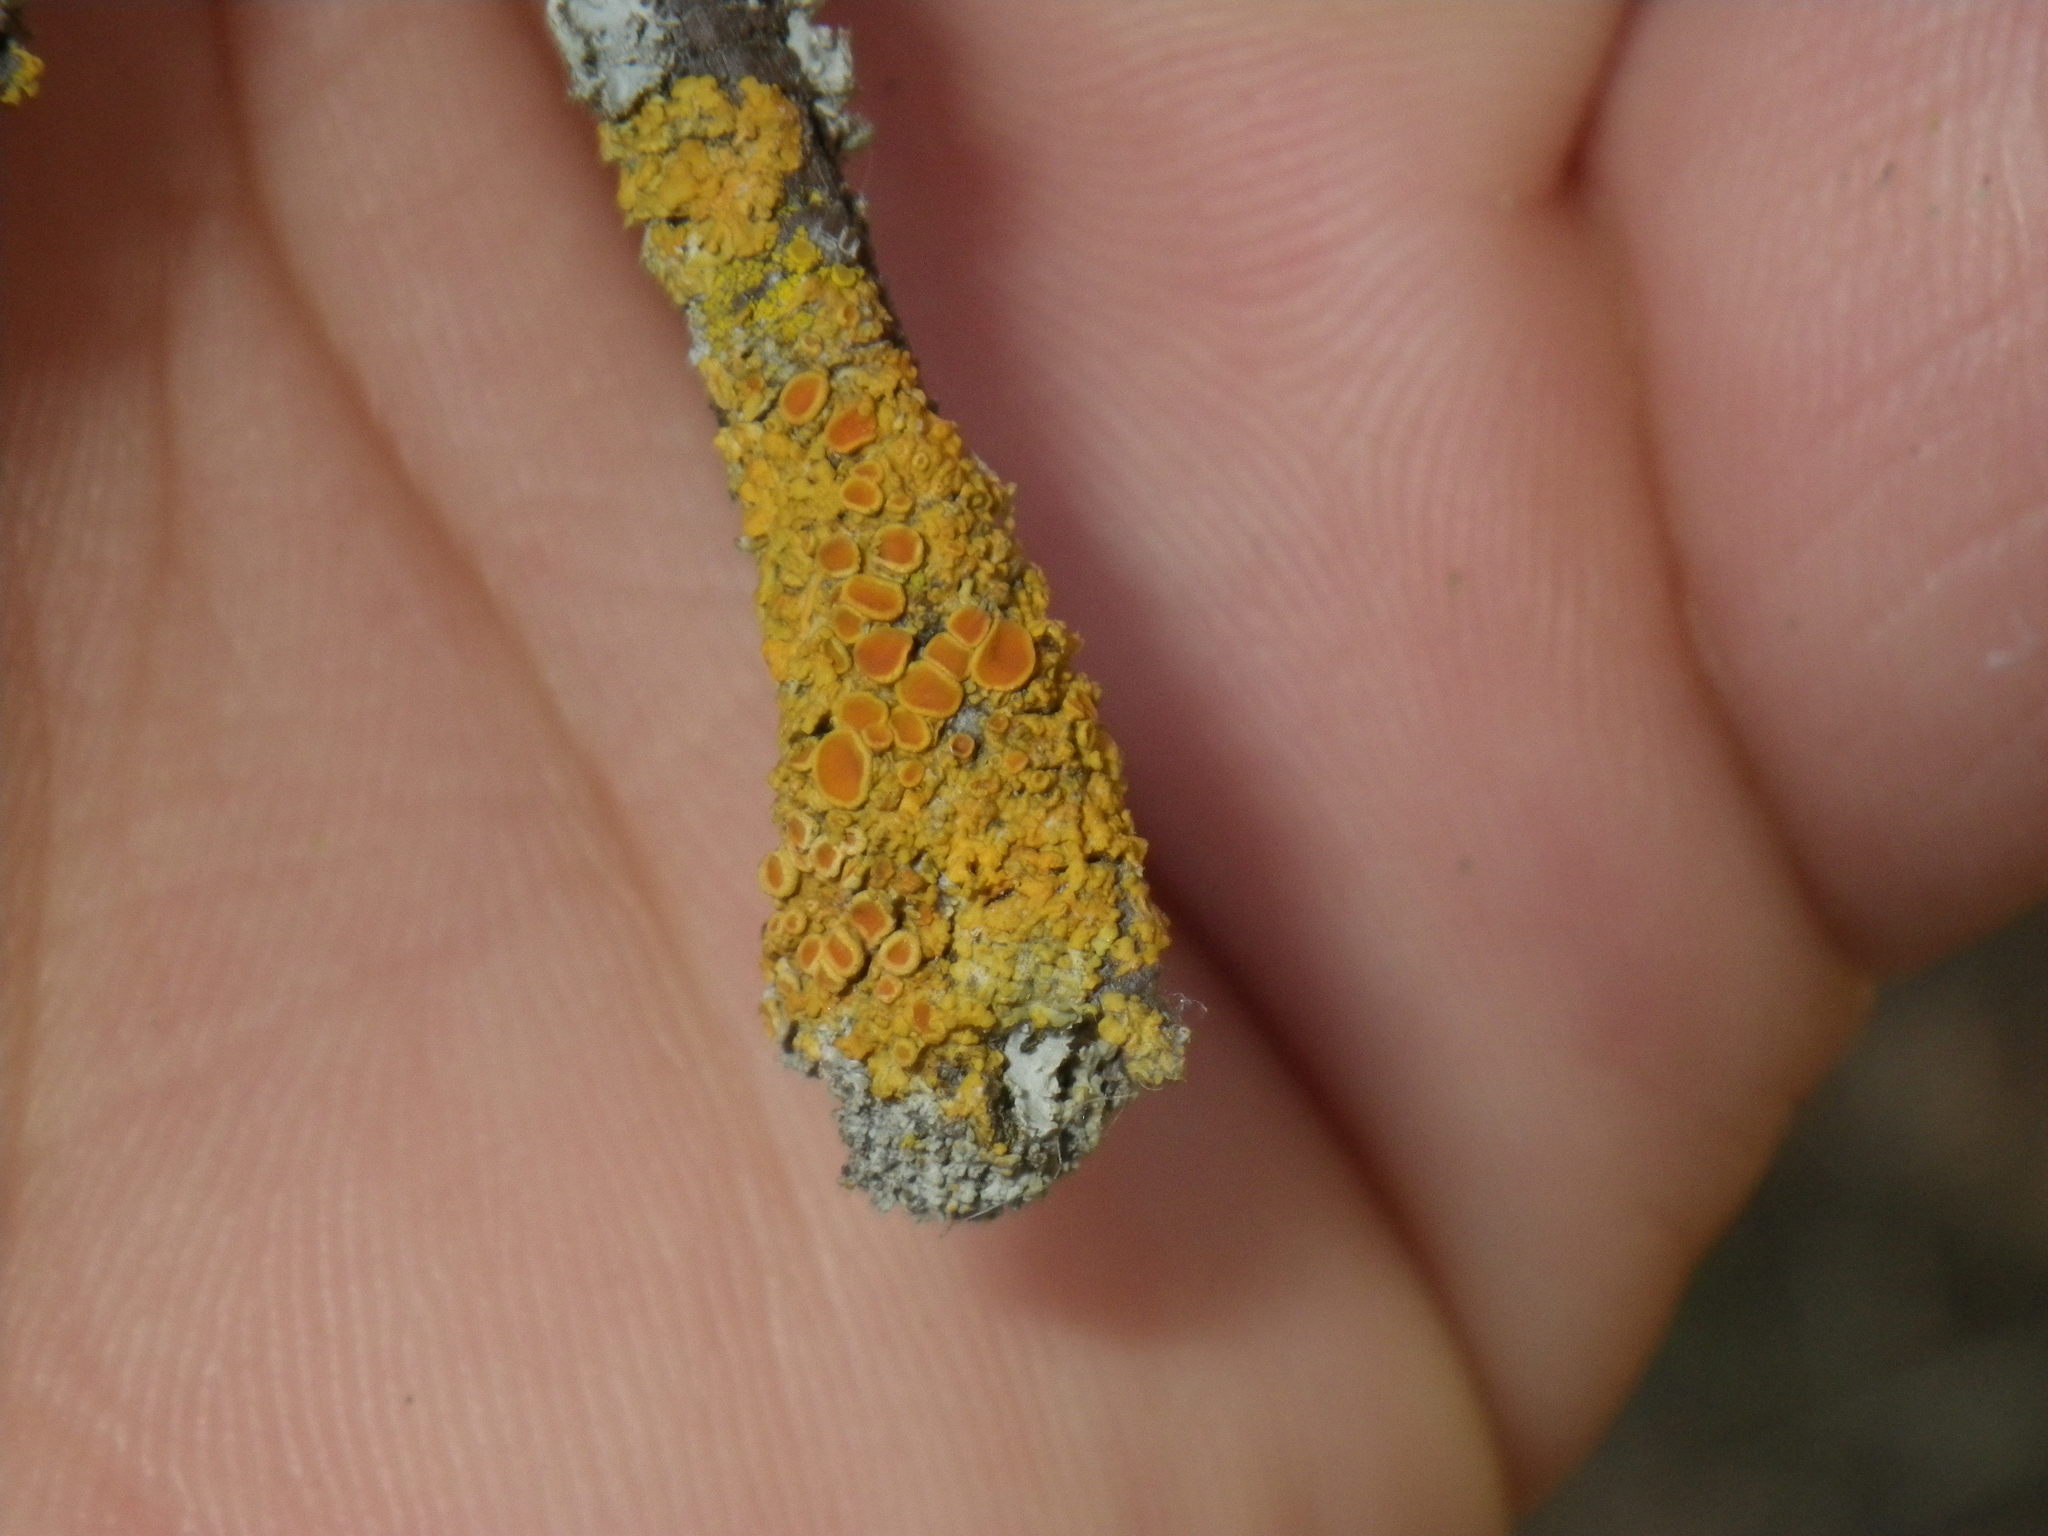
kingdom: Fungi
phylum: Ascomycota
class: Lecanoromycetes
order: Teloschistales
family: Teloschistaceae
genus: Xanthoria
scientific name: Xanthoria parietina
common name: Common orange lichen
